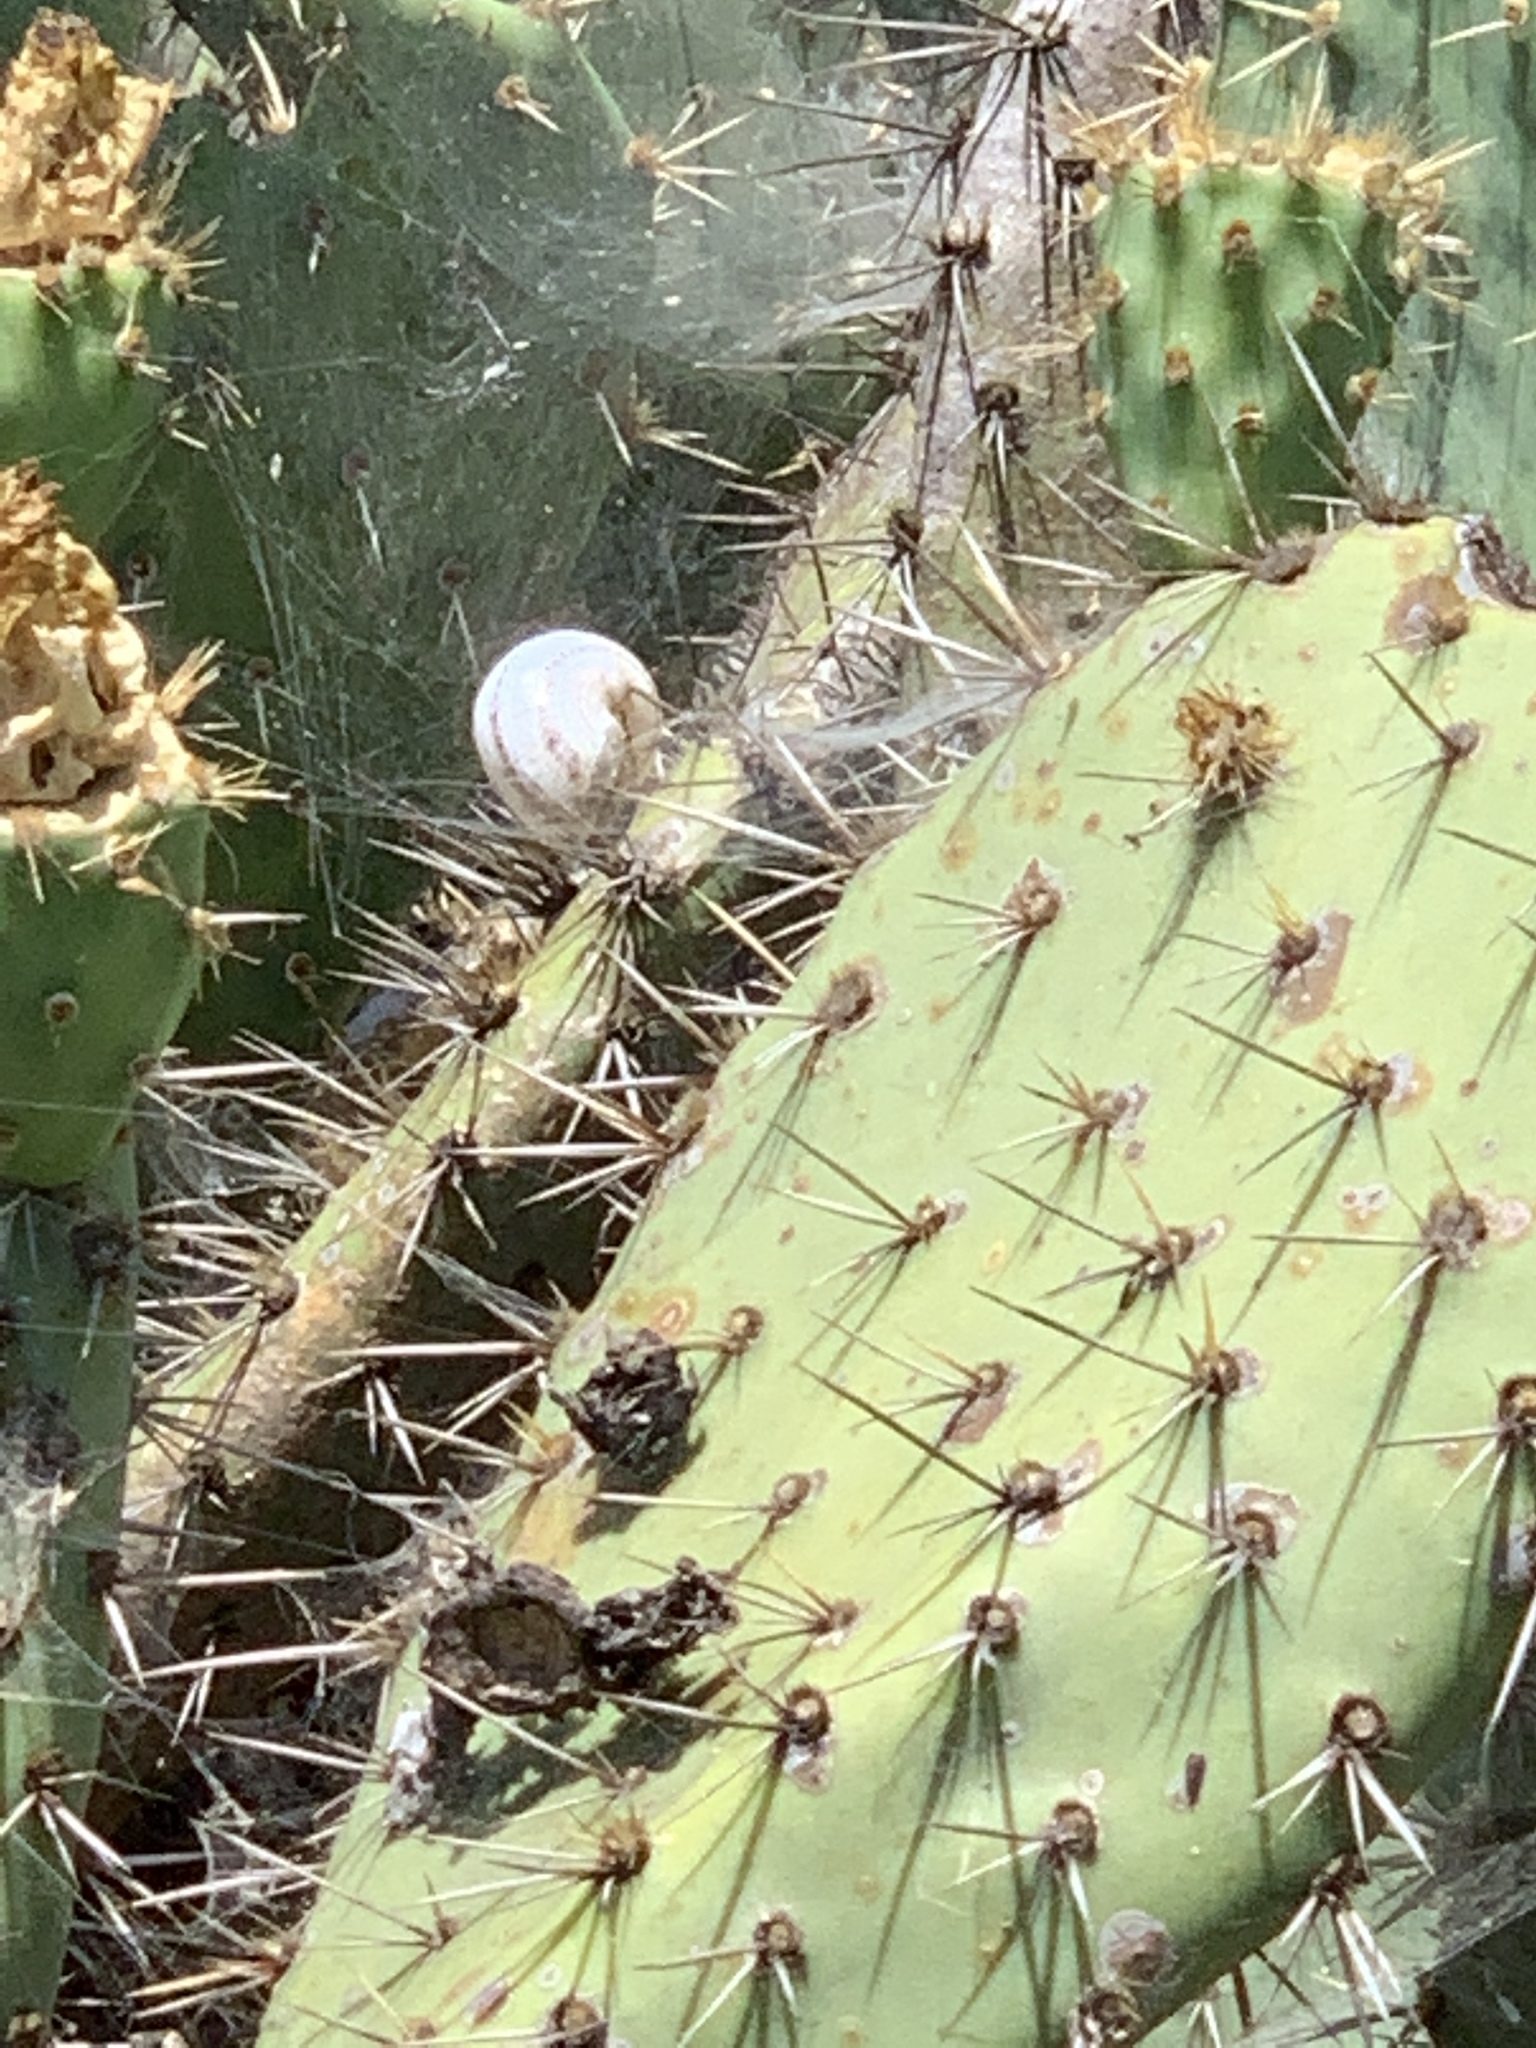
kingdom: Animalia
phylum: Mollusca
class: Gastropoda
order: Stylommatophora
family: Helicidae
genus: Otala
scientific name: Otala lactea
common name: Milk snail
